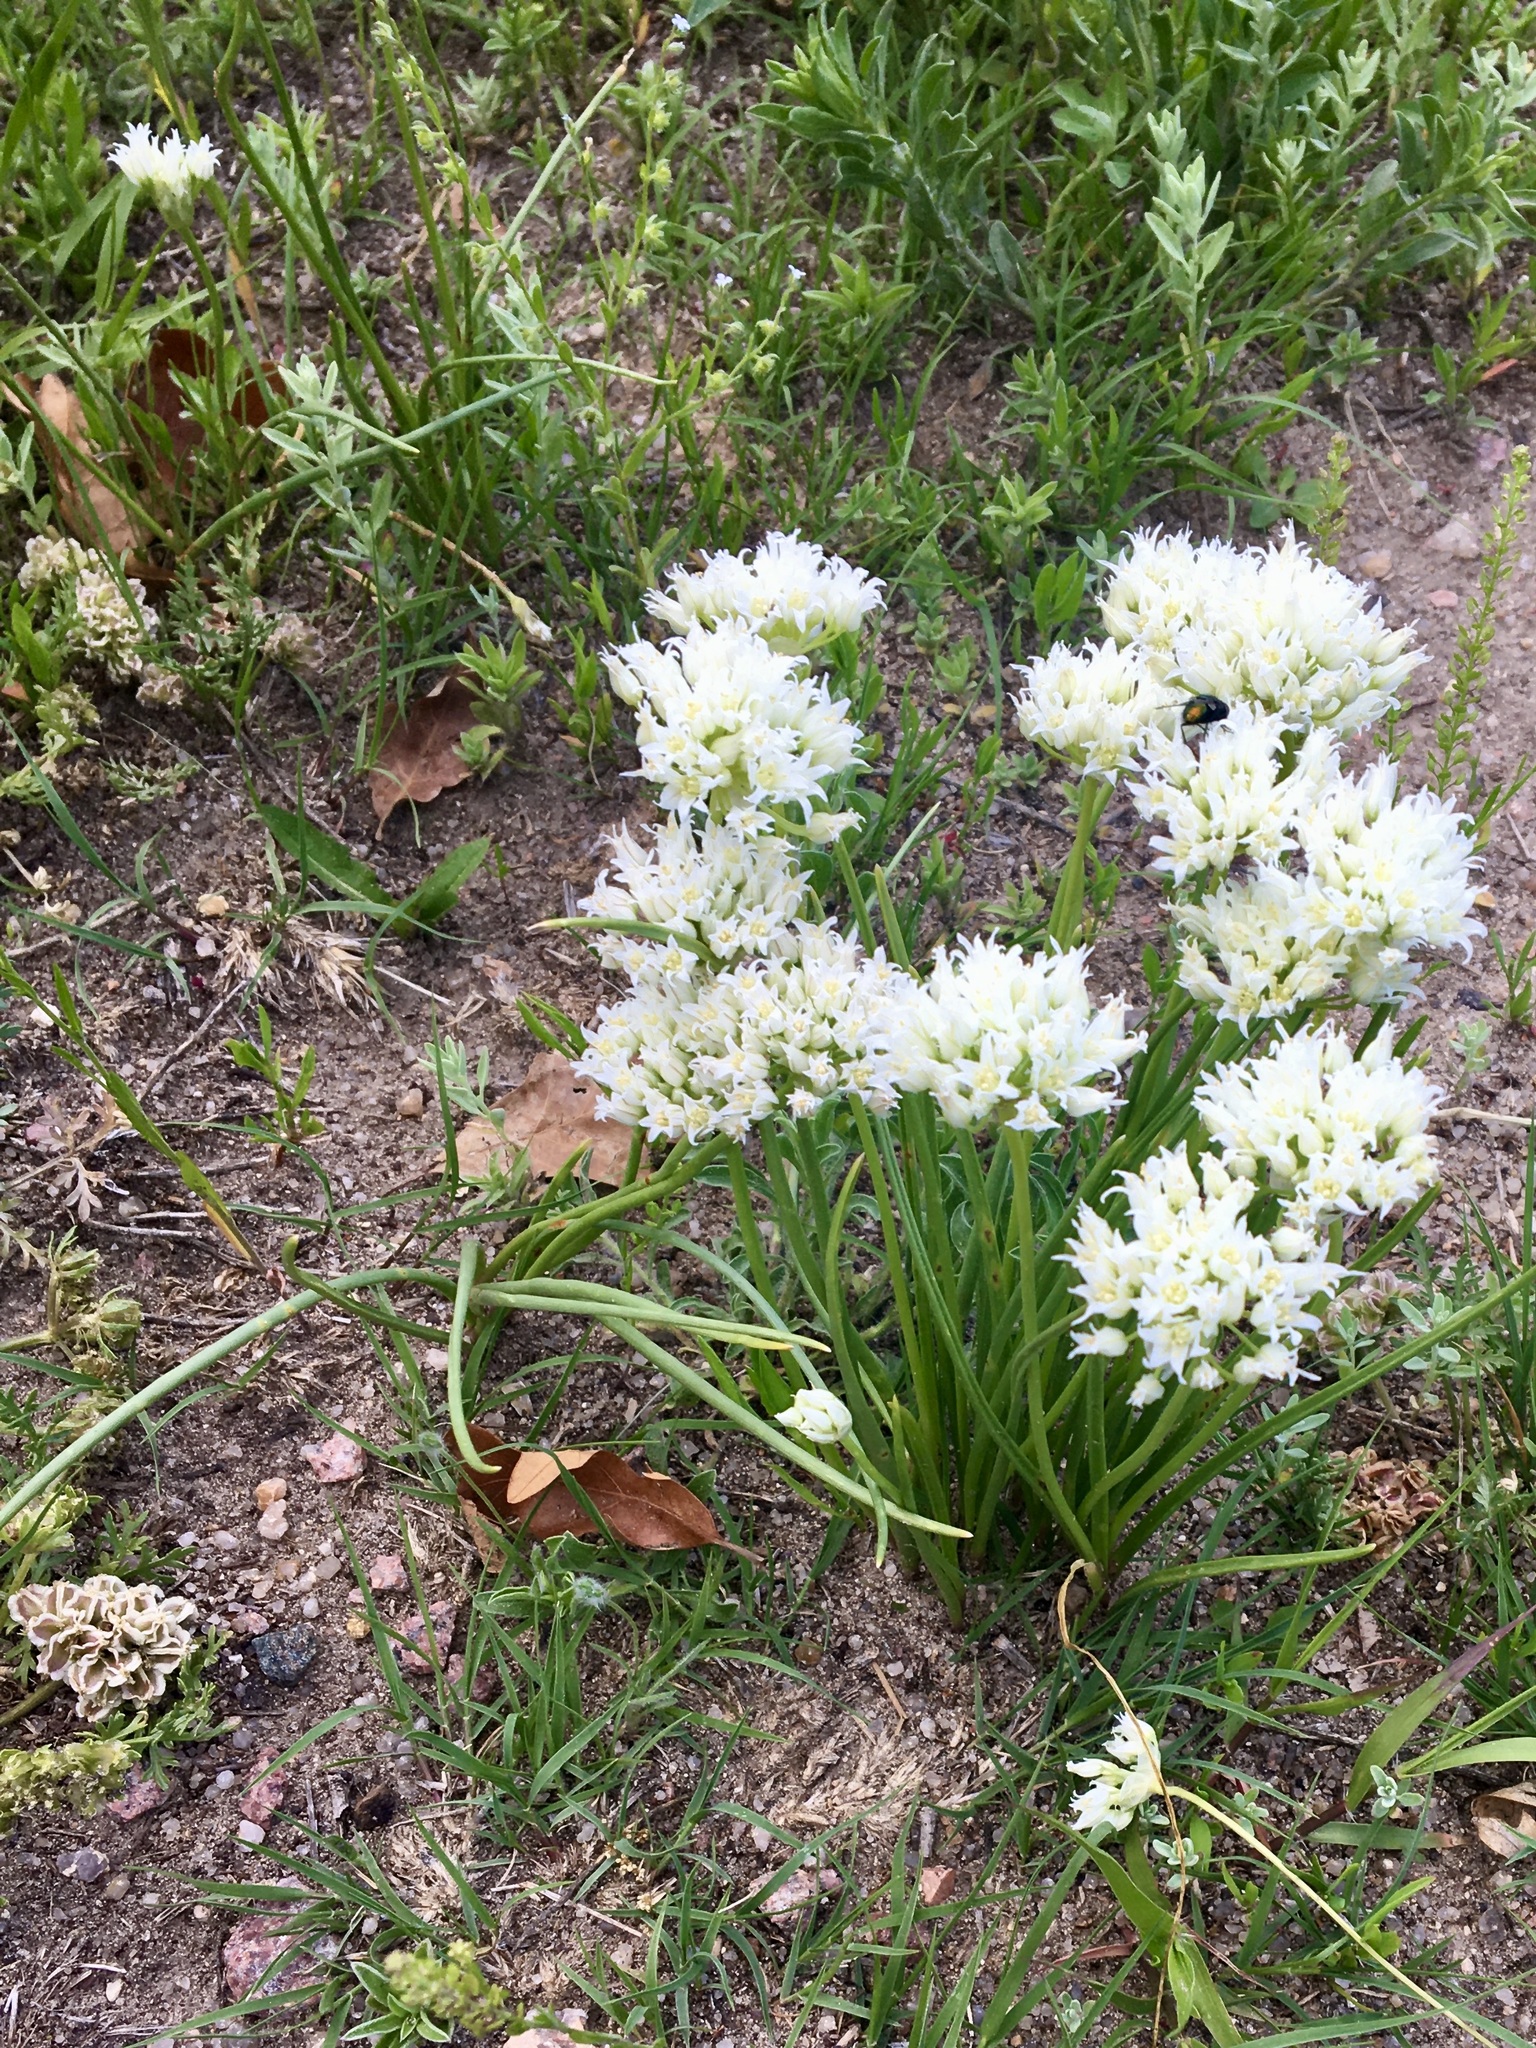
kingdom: Plantae
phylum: Tracheophyta
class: Liliopsida
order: Asparagales
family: Amaryllidaceae
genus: Allium
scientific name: Allium textile
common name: Prairie onion
